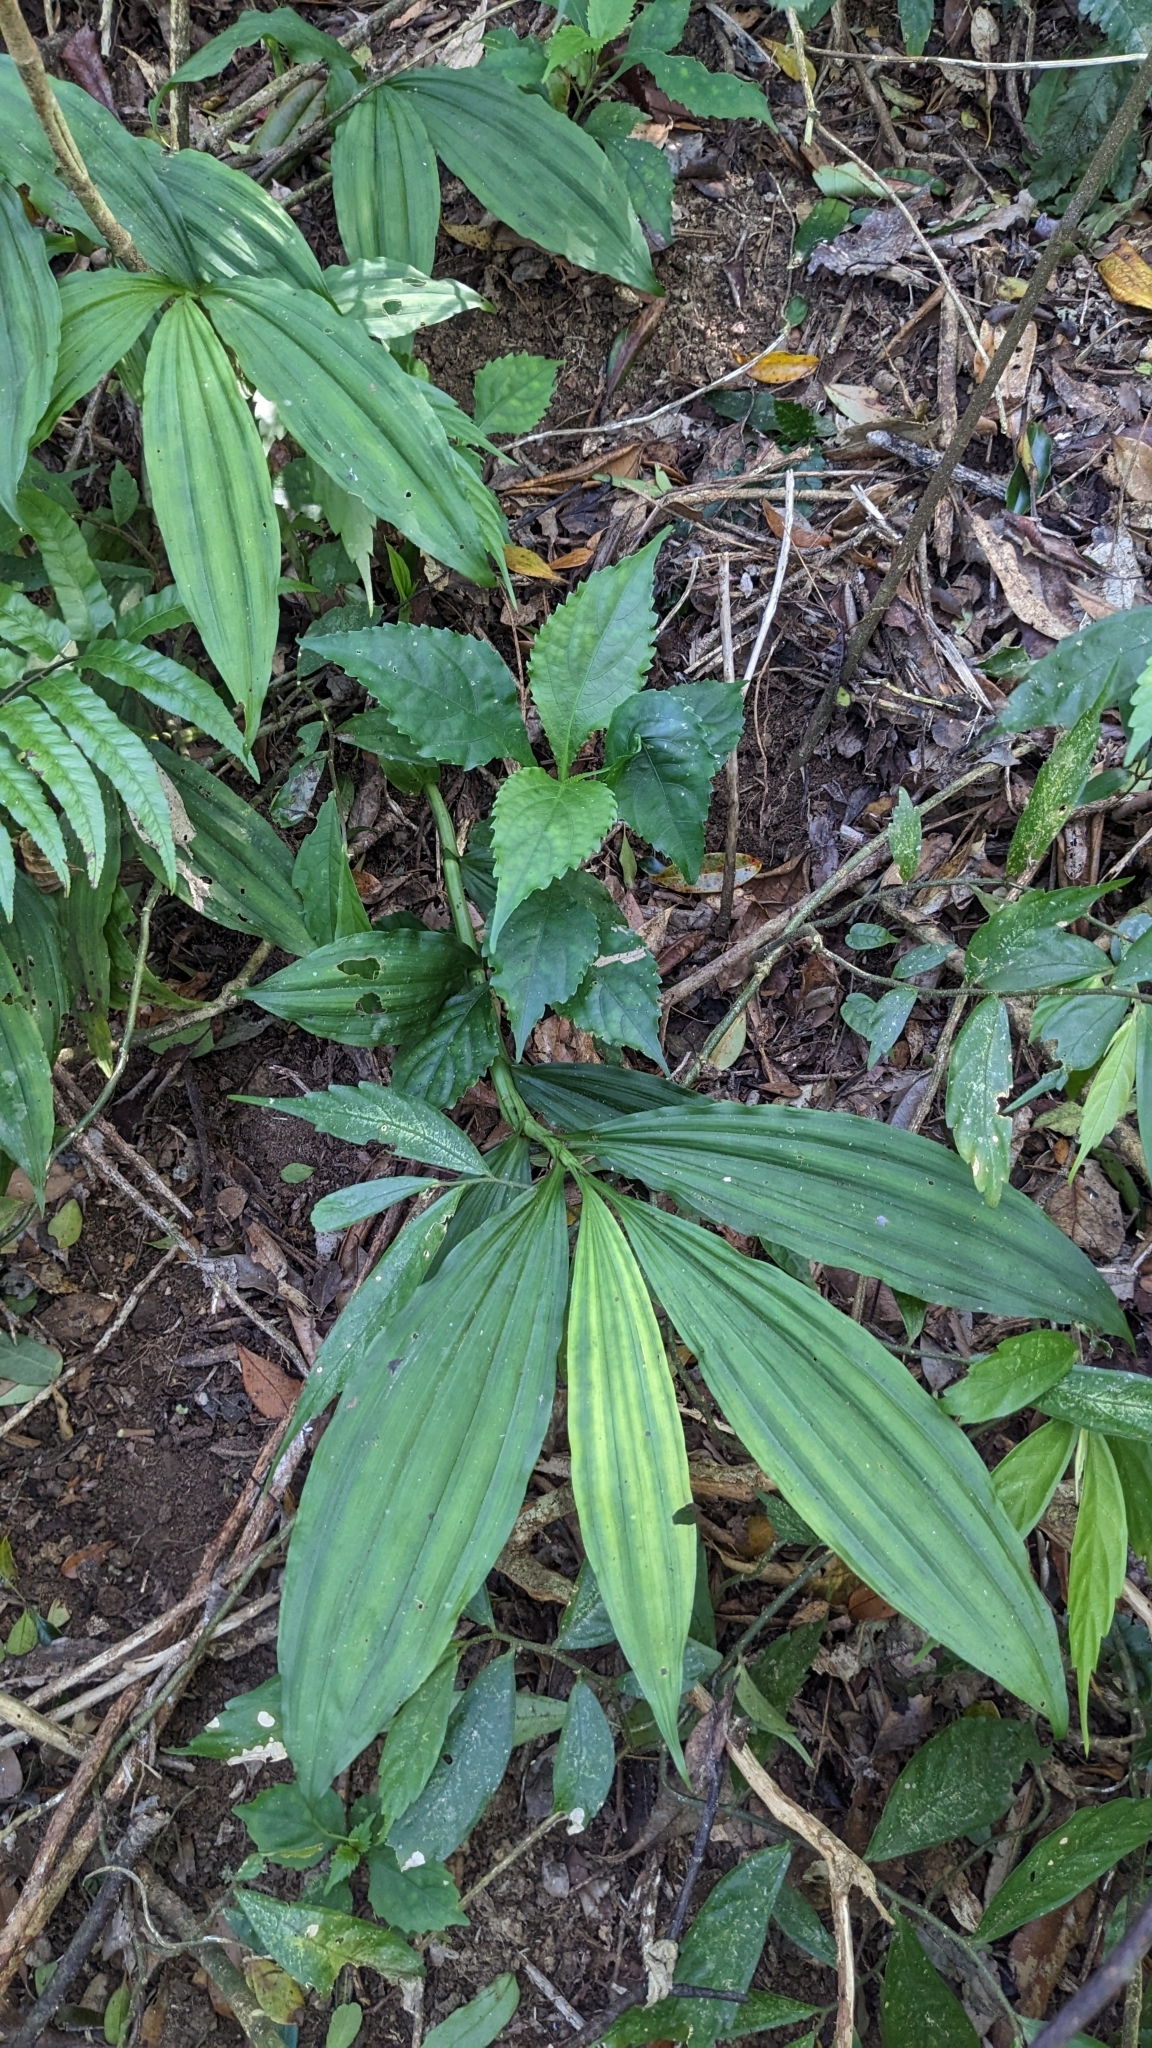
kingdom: Plantae
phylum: Tracheophyta
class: Liliopsida
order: Asparagales
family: Orchidaceae
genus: Calanthe
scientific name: Calanthe obcordata
